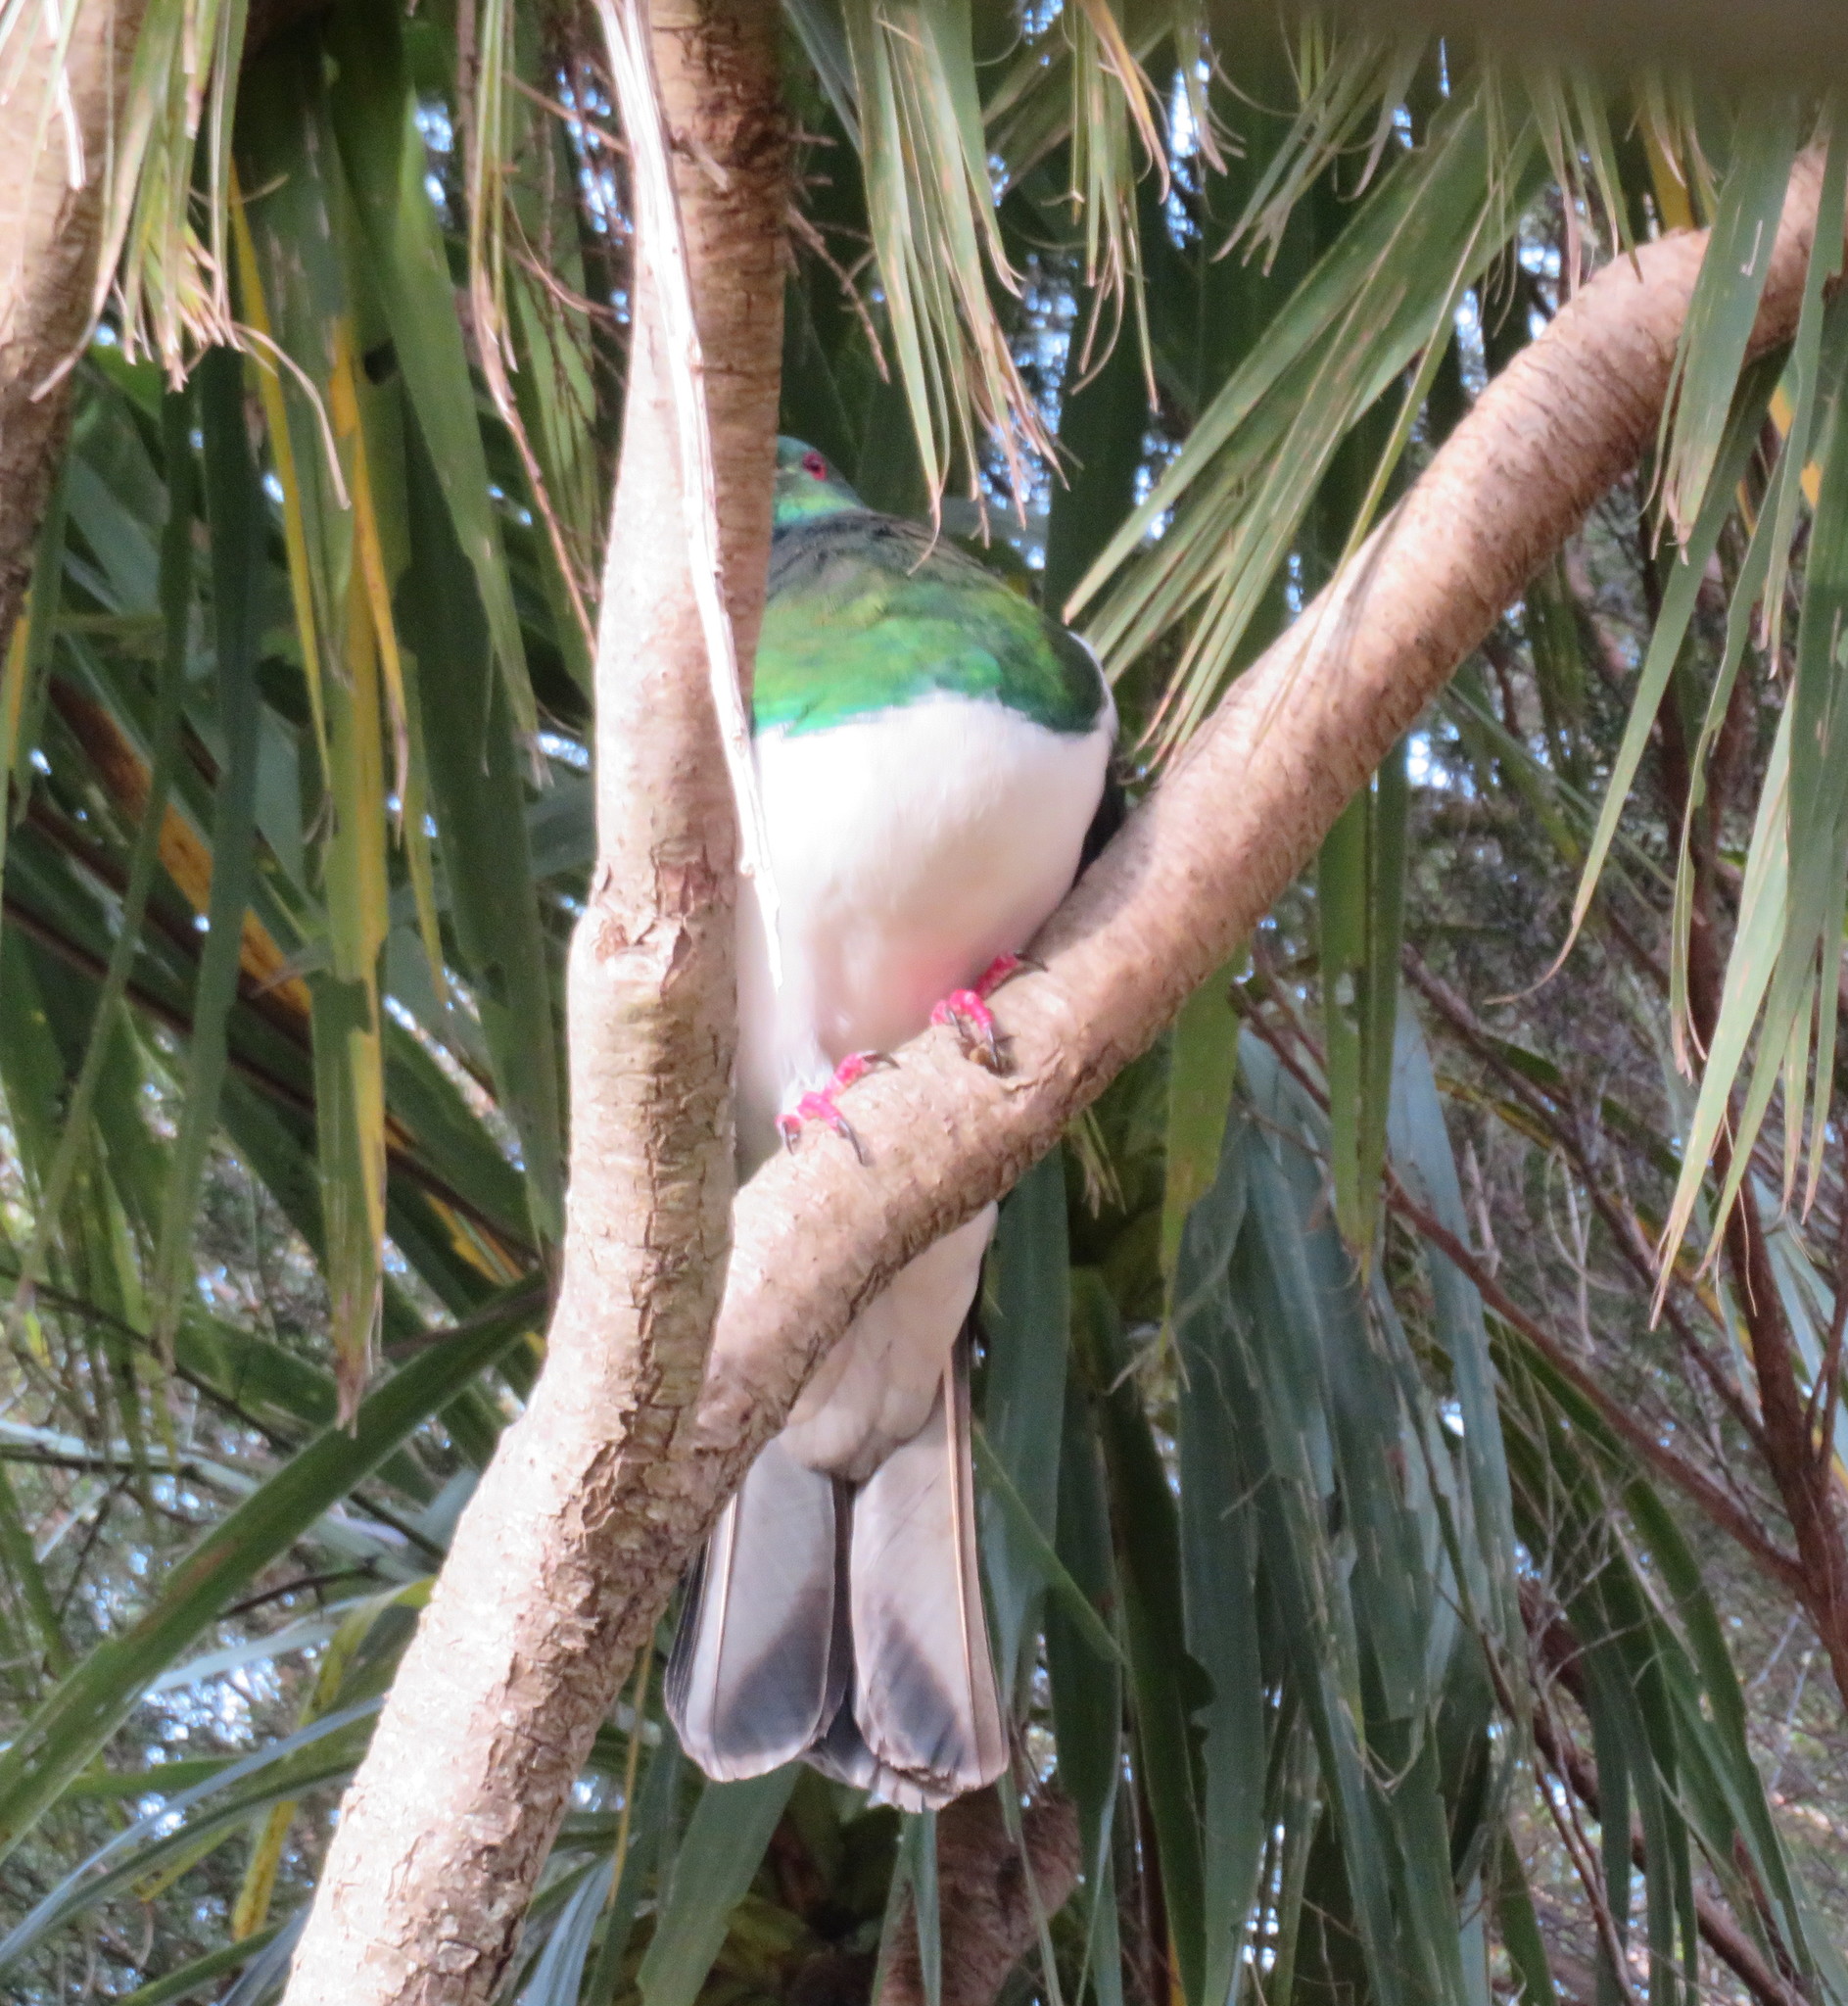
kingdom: Plantae
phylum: Tracheophyta
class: Liliopsida
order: Asparagales
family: Asparagaceae
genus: Cordyline
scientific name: Cordyline australis
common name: Cabbage-palm
